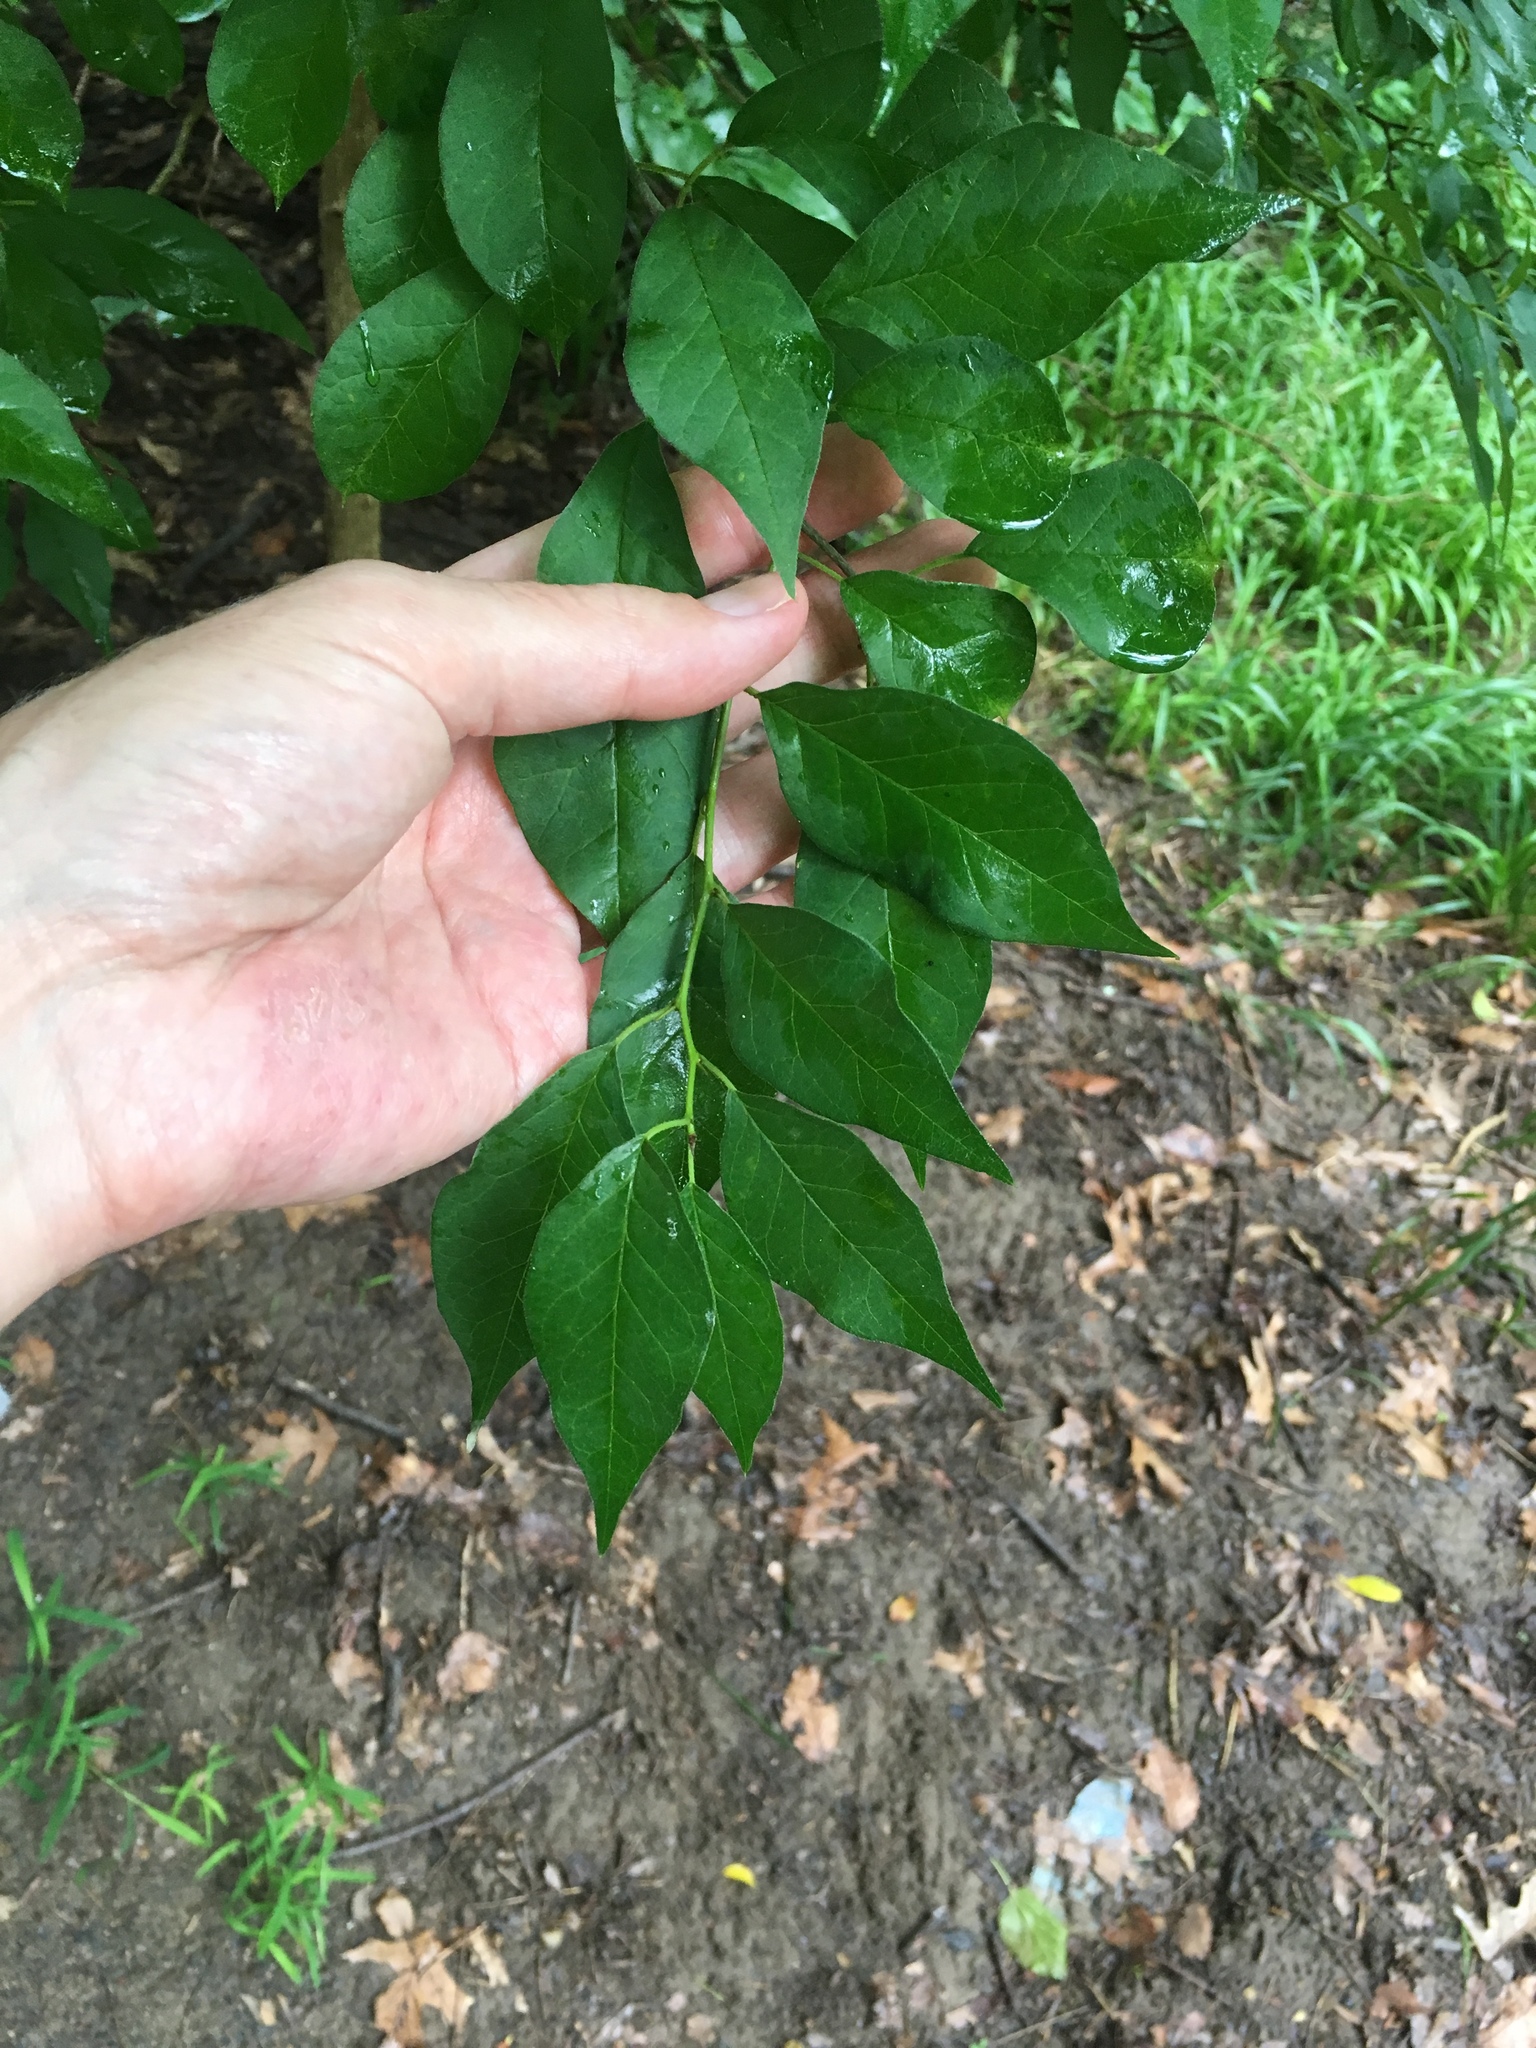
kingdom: Plantae
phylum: Tracheophyta
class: Magnoliopsida
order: Rosales
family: Moraceae
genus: Maclura
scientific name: Maclura pomifera
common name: Osage-orange
